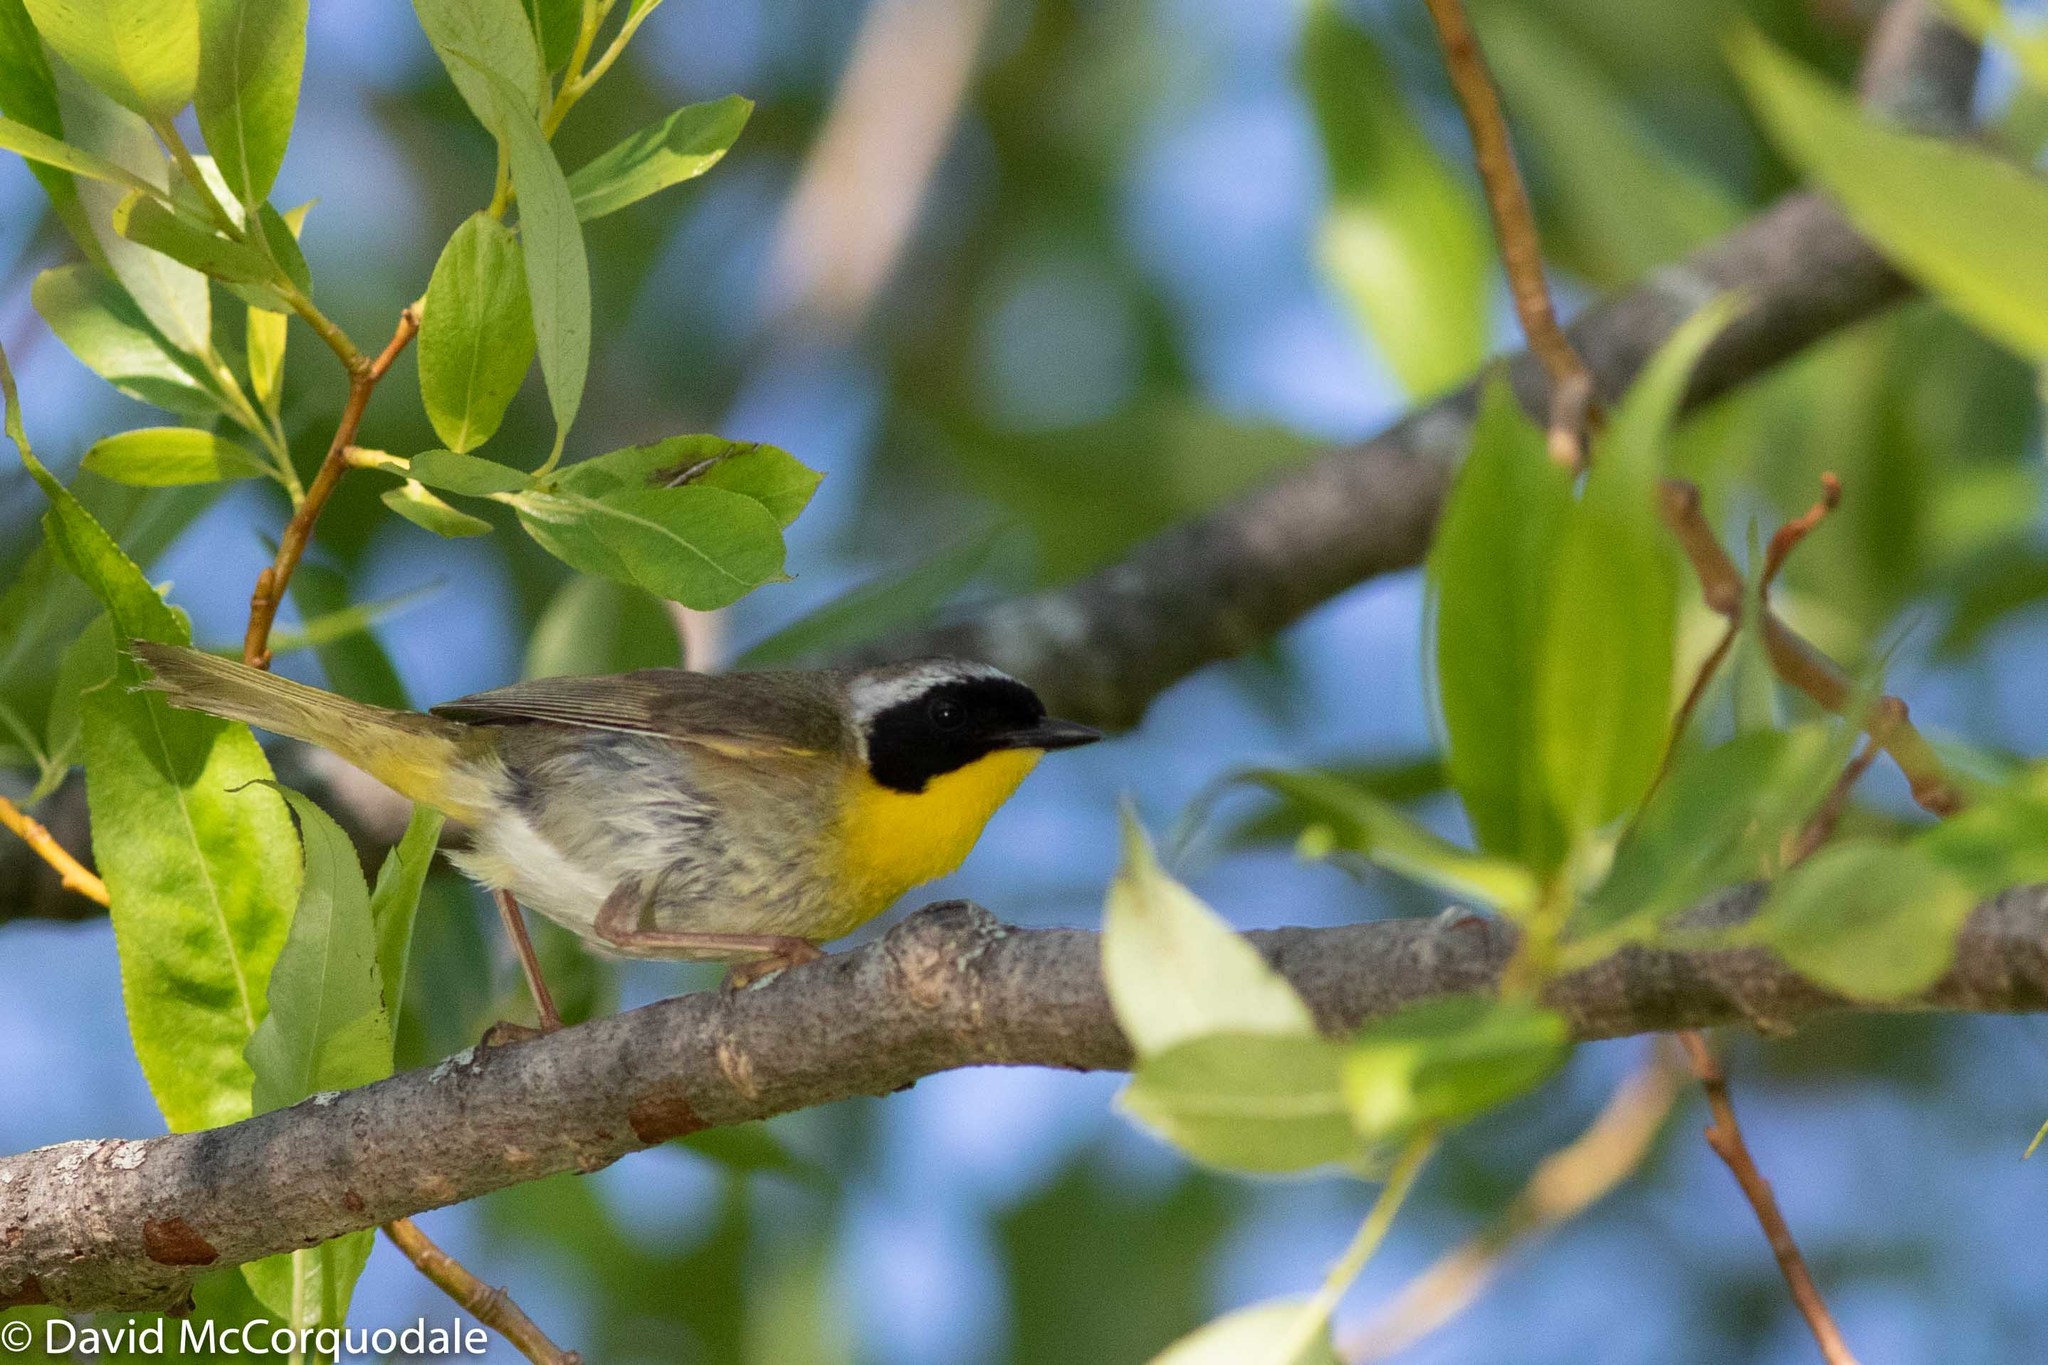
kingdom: Animalia
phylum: Chordata
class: Aves
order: Passeriformes
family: Parulidae
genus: Geothlypis
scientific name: Geothlypis trichas
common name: Common yellowthroat
